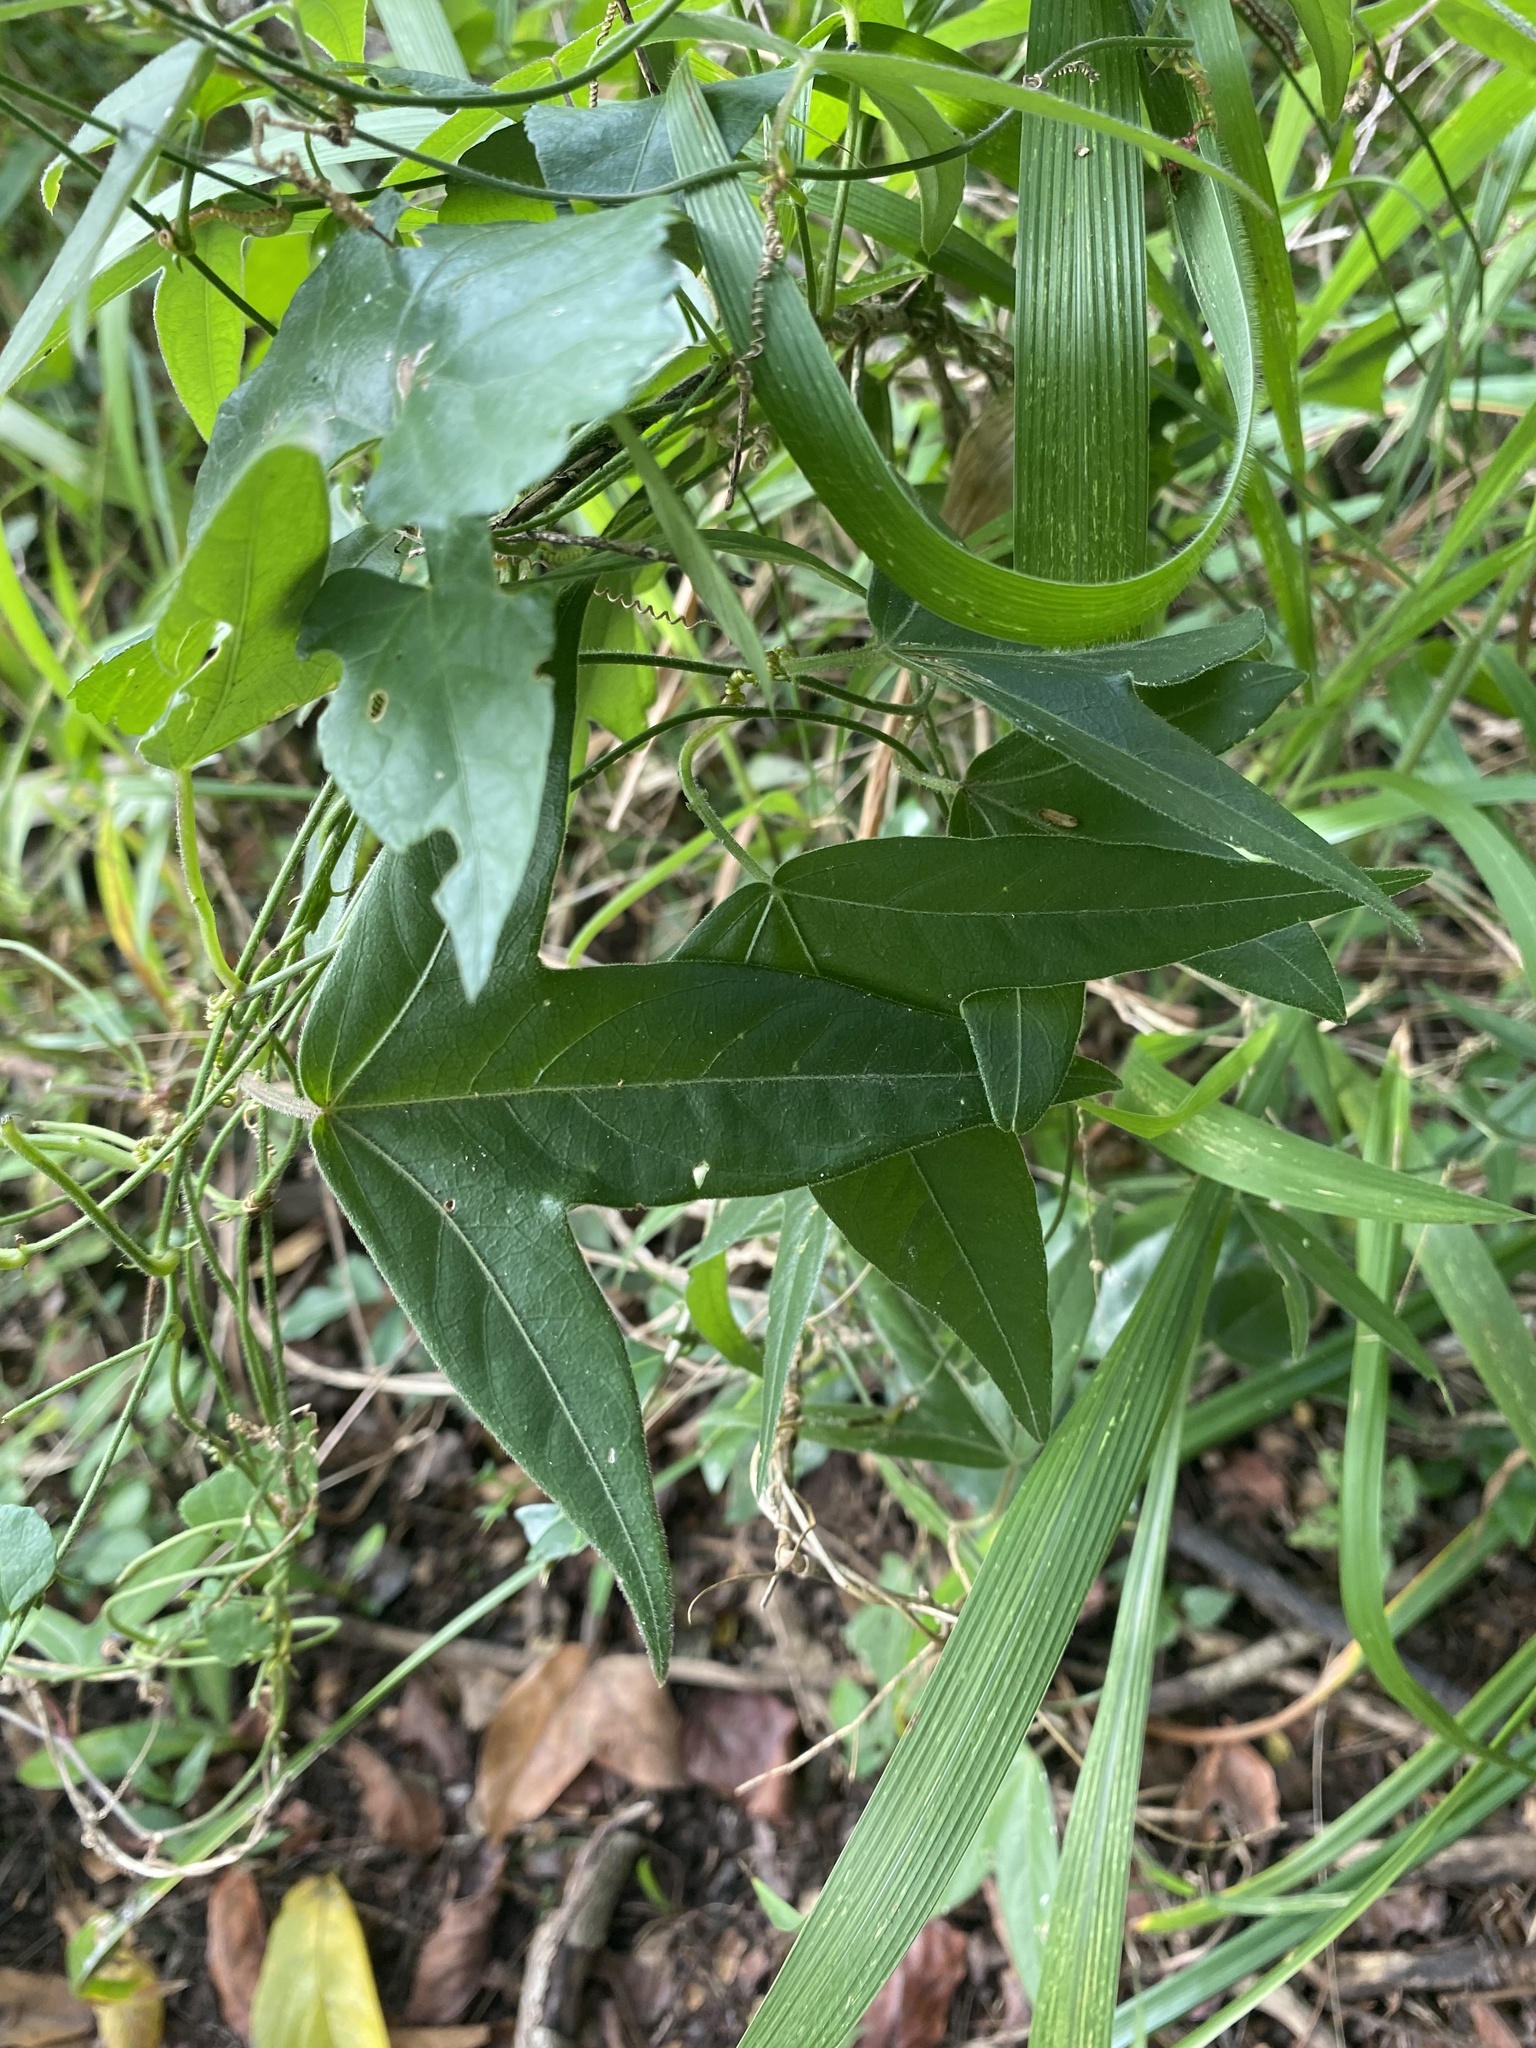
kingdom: Plantae
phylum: Tracheophyta
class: Magnoliopsida
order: Malpighiales
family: Passifloraceae
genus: Passiflora
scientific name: Passiflora suberosa
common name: Wild passionfruit
